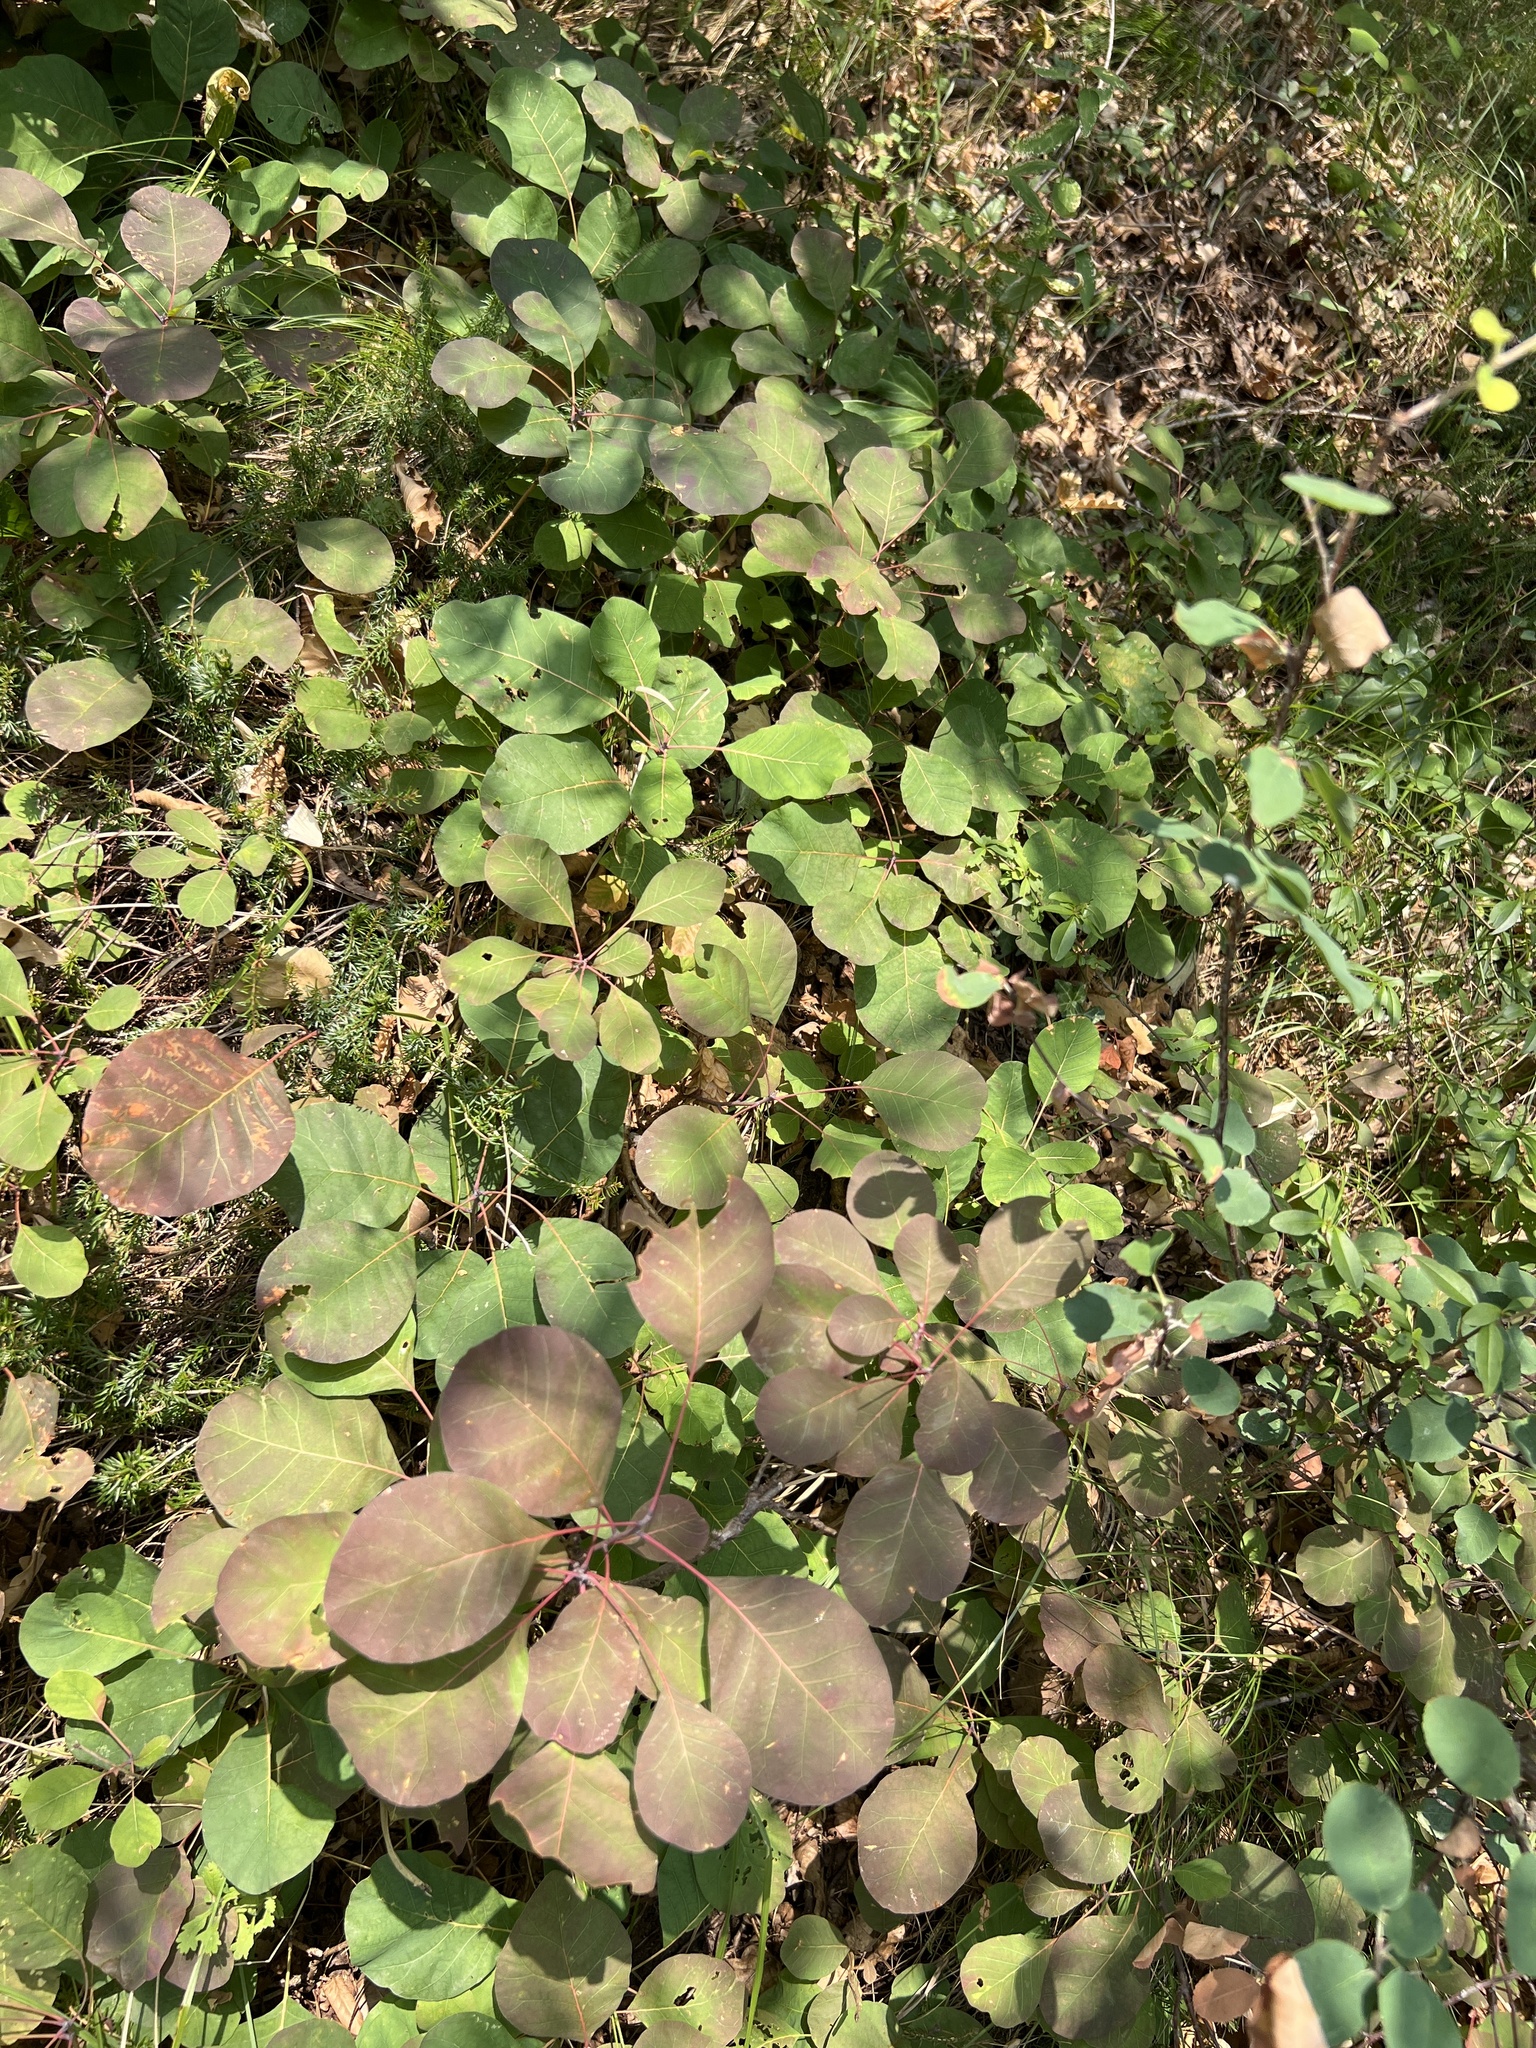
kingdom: Plantae
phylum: Tracheophyta
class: Magnoliopsida
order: Sapindales
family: Anacardiaceae
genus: Cotinus
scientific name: Cotinus coggygria
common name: Smoke-tree
